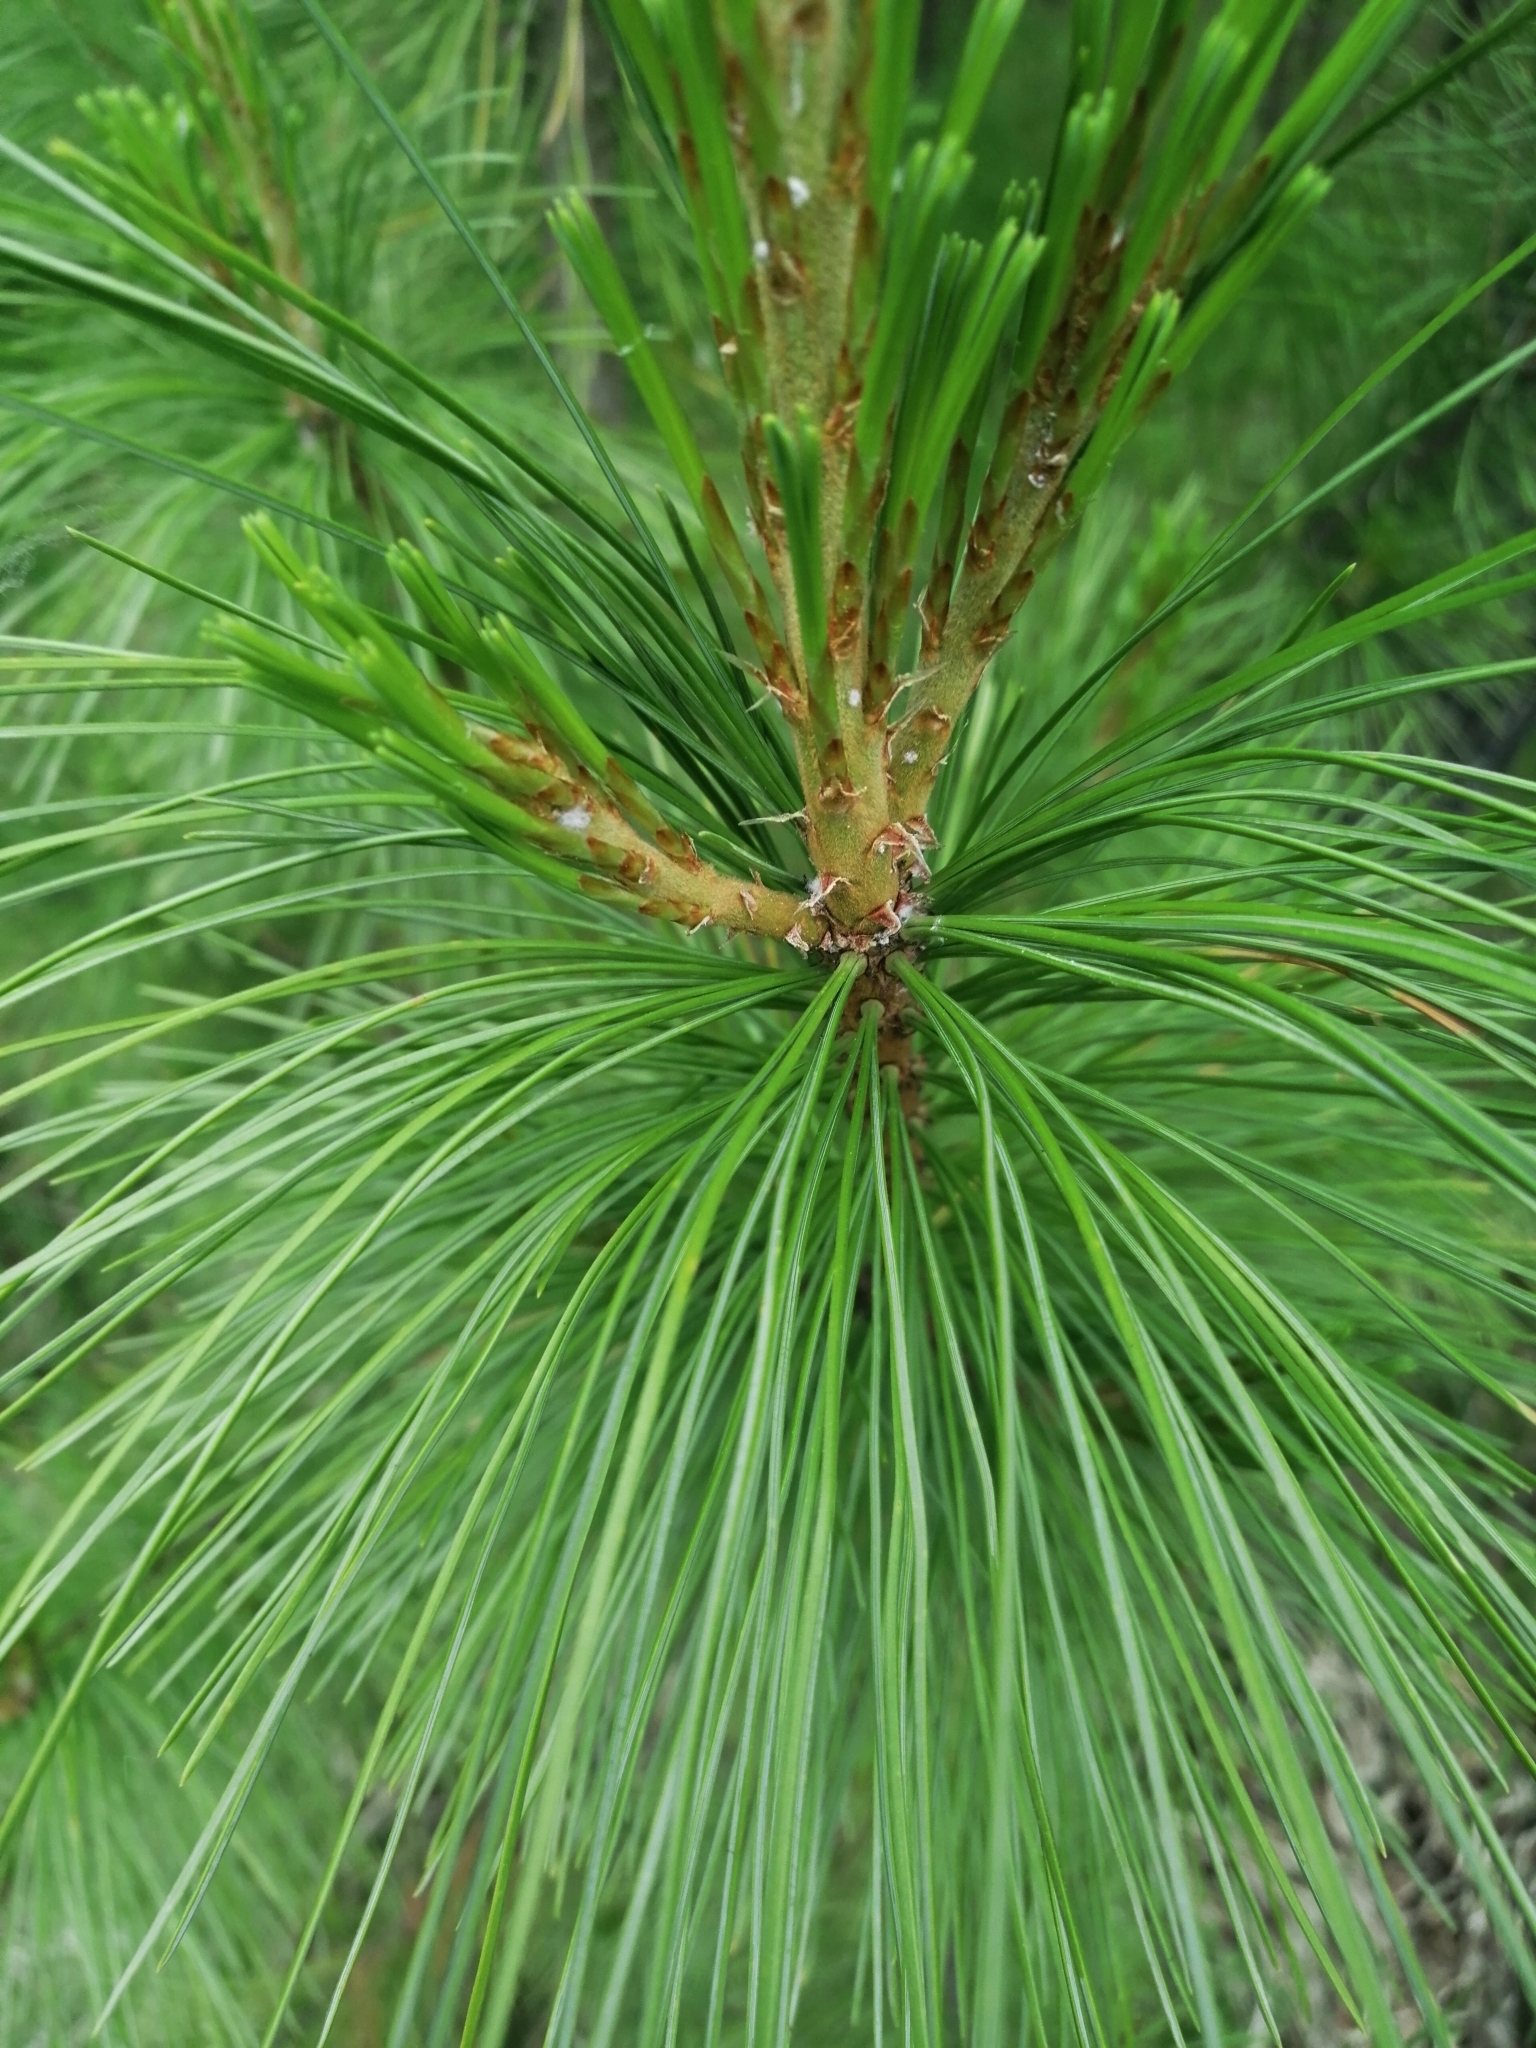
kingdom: Plantae
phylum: Tracheophyta
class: Pinopsida
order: Pinales
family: Pinaceae
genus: Pinus
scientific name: Pinus sibirica
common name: Siberian pine
